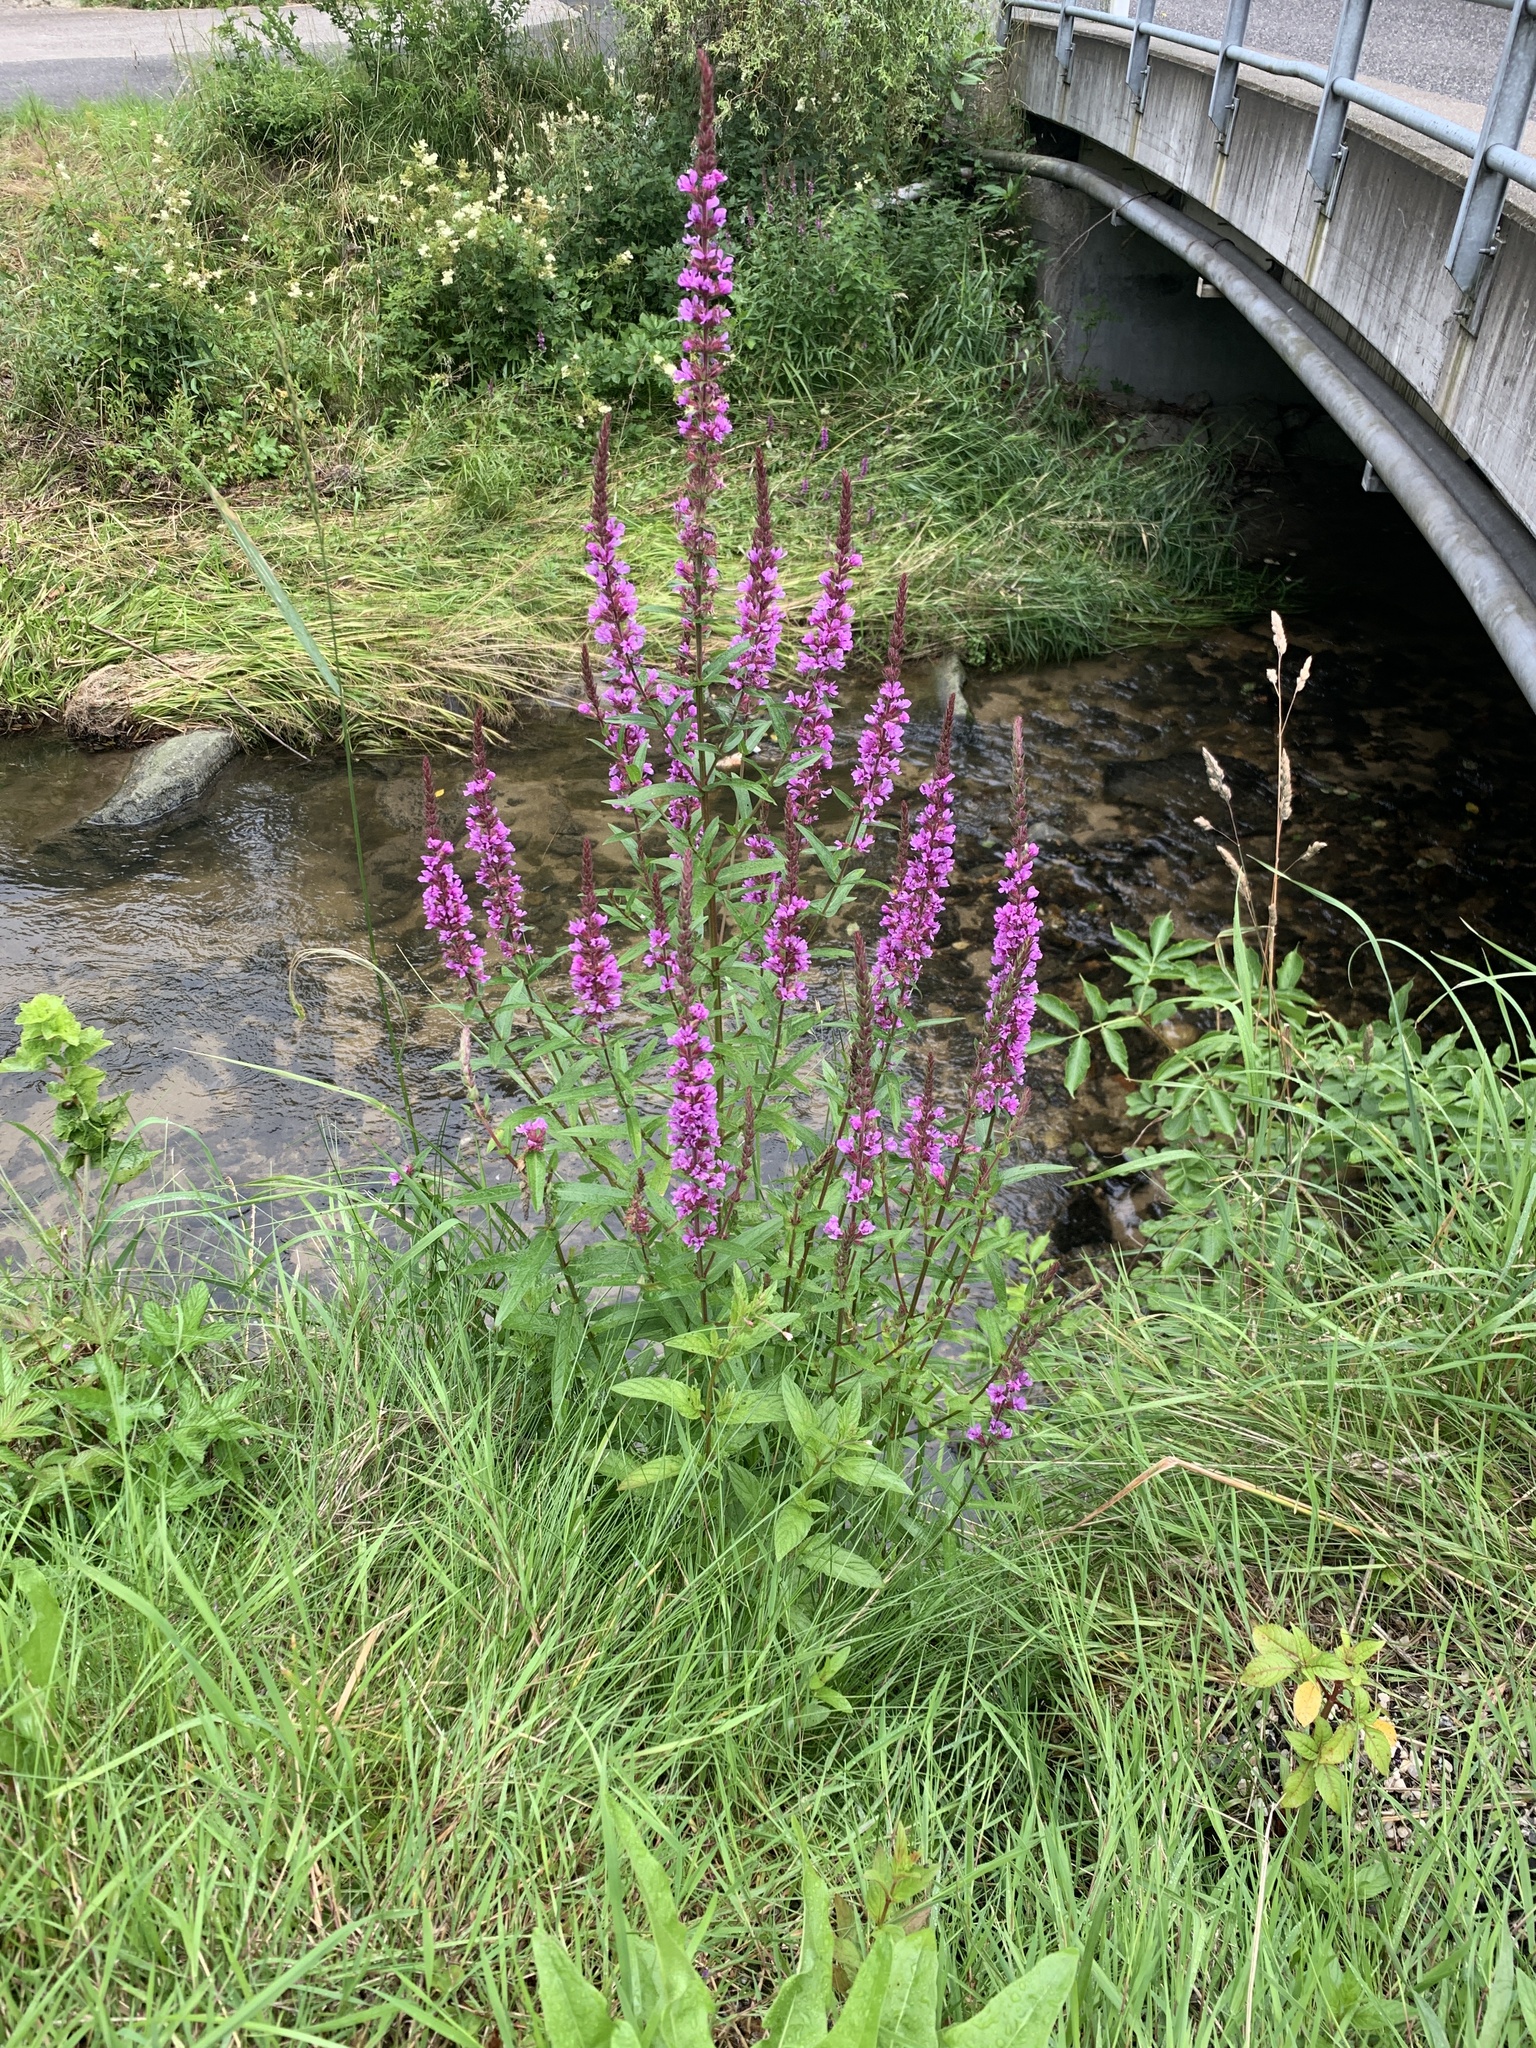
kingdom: Plantae
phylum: Tracheophyta
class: Magnoliopsida
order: Myrtales
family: Lythraceae
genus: Lythrum
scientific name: Lythrum salicaria
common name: Purple loosestrife
